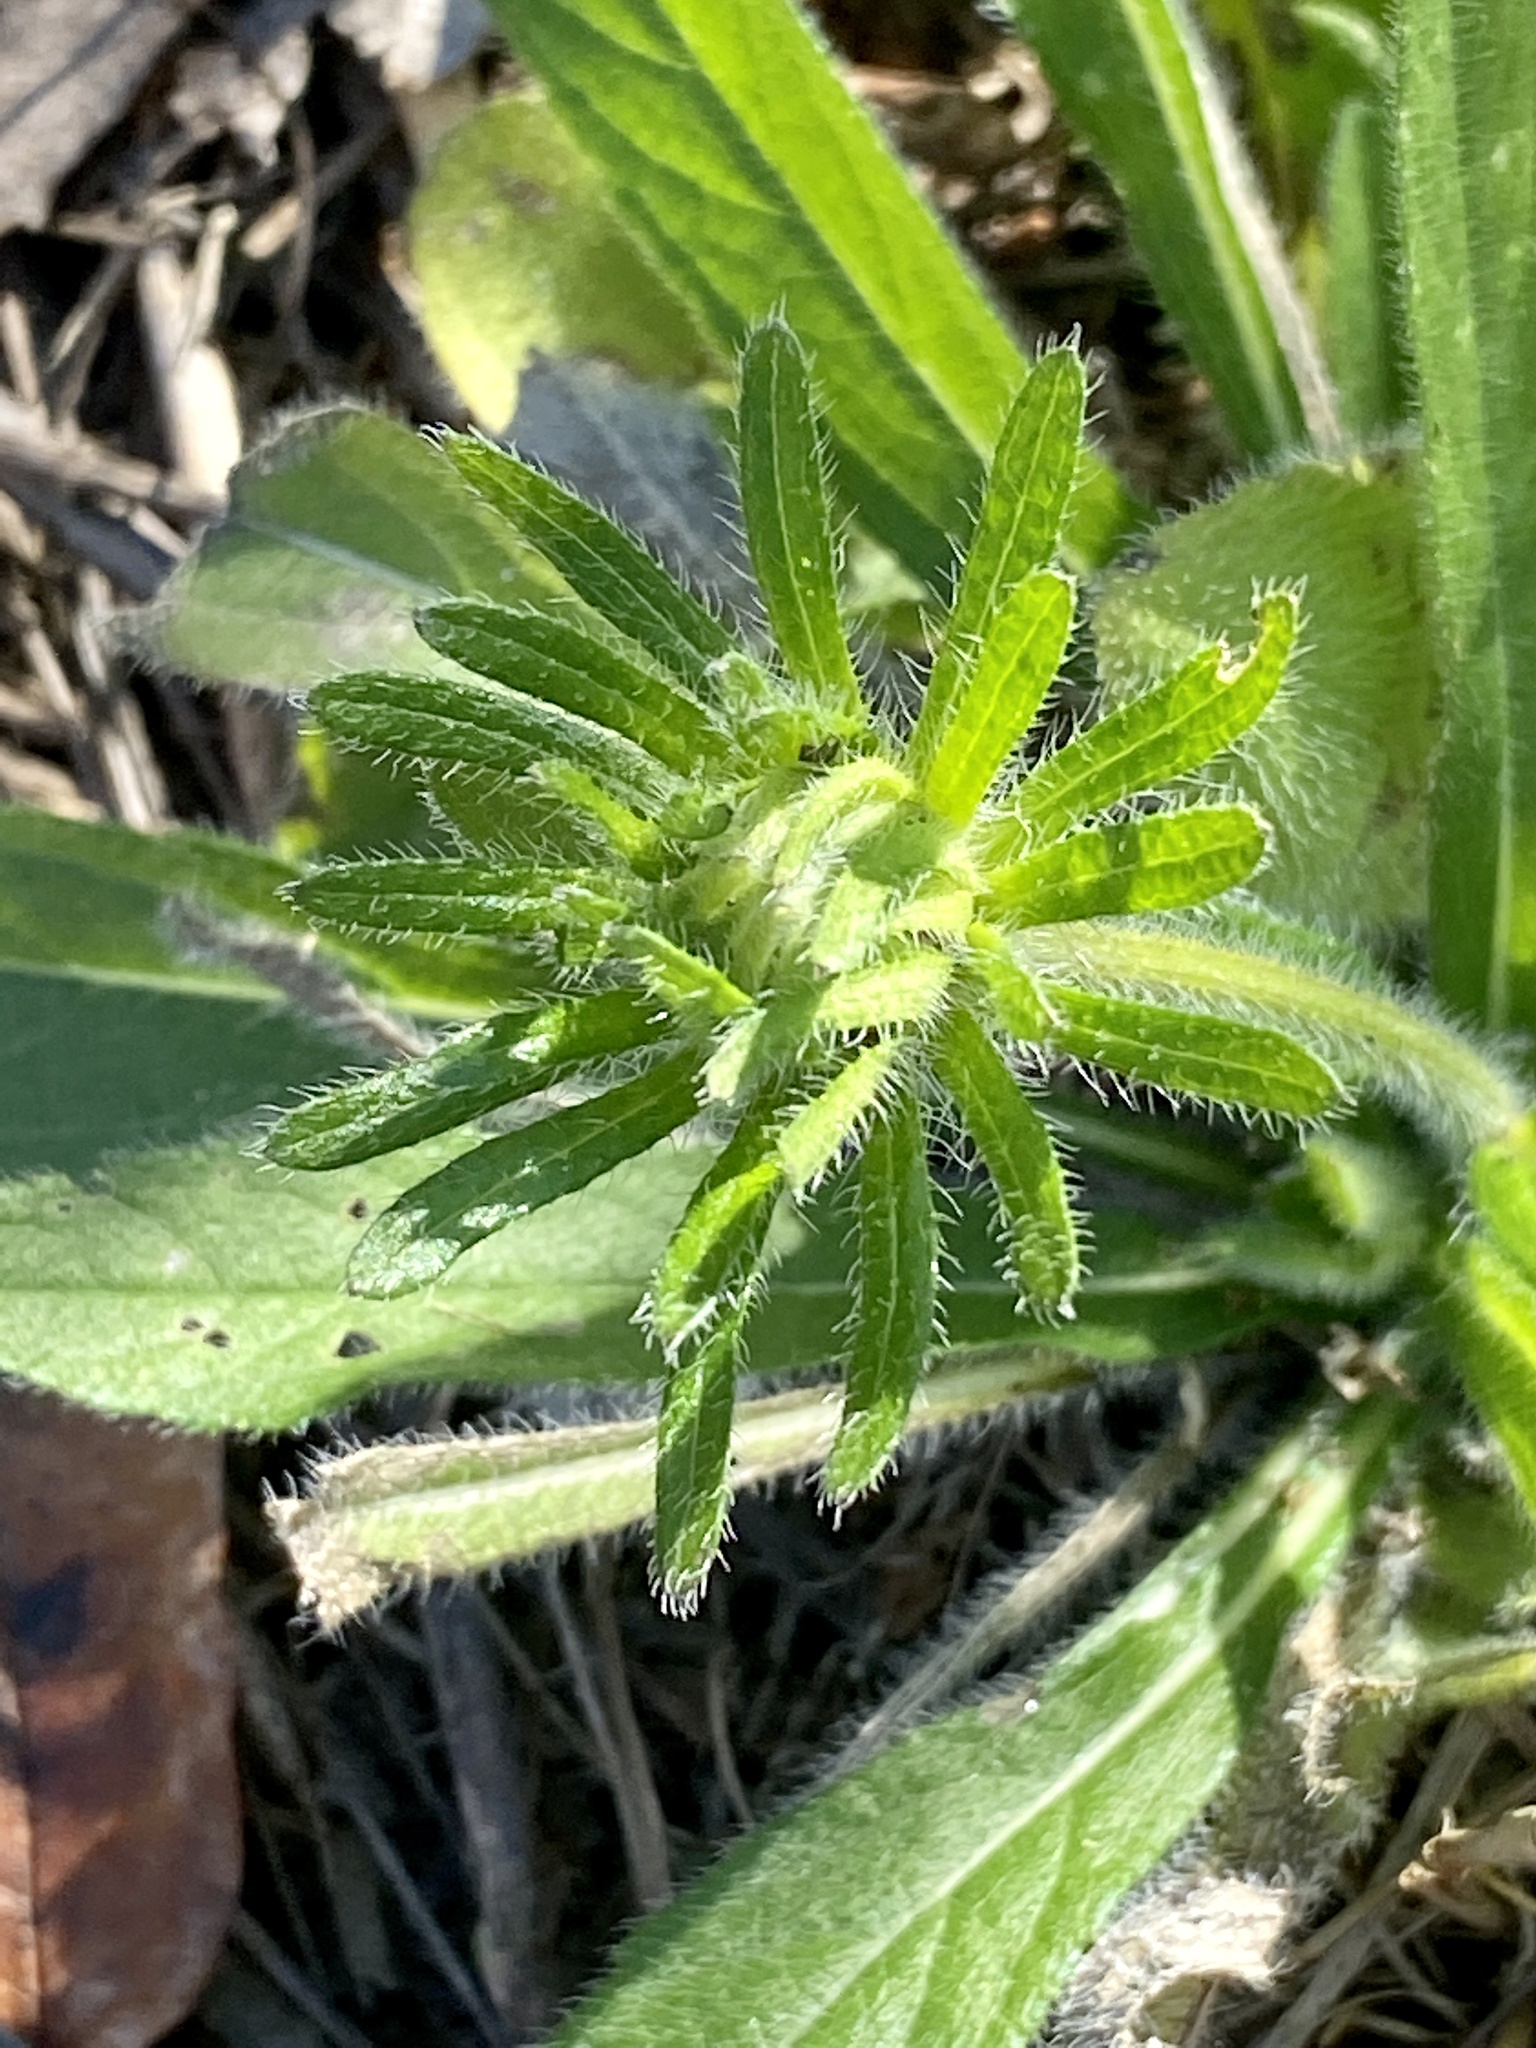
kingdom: Plantae
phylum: Tracheophyta
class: Magnoliopsida
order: Asterales
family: Asteraceae
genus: Rudbeckia
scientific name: Rudbeckia hirta
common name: Black-eyed-susan
